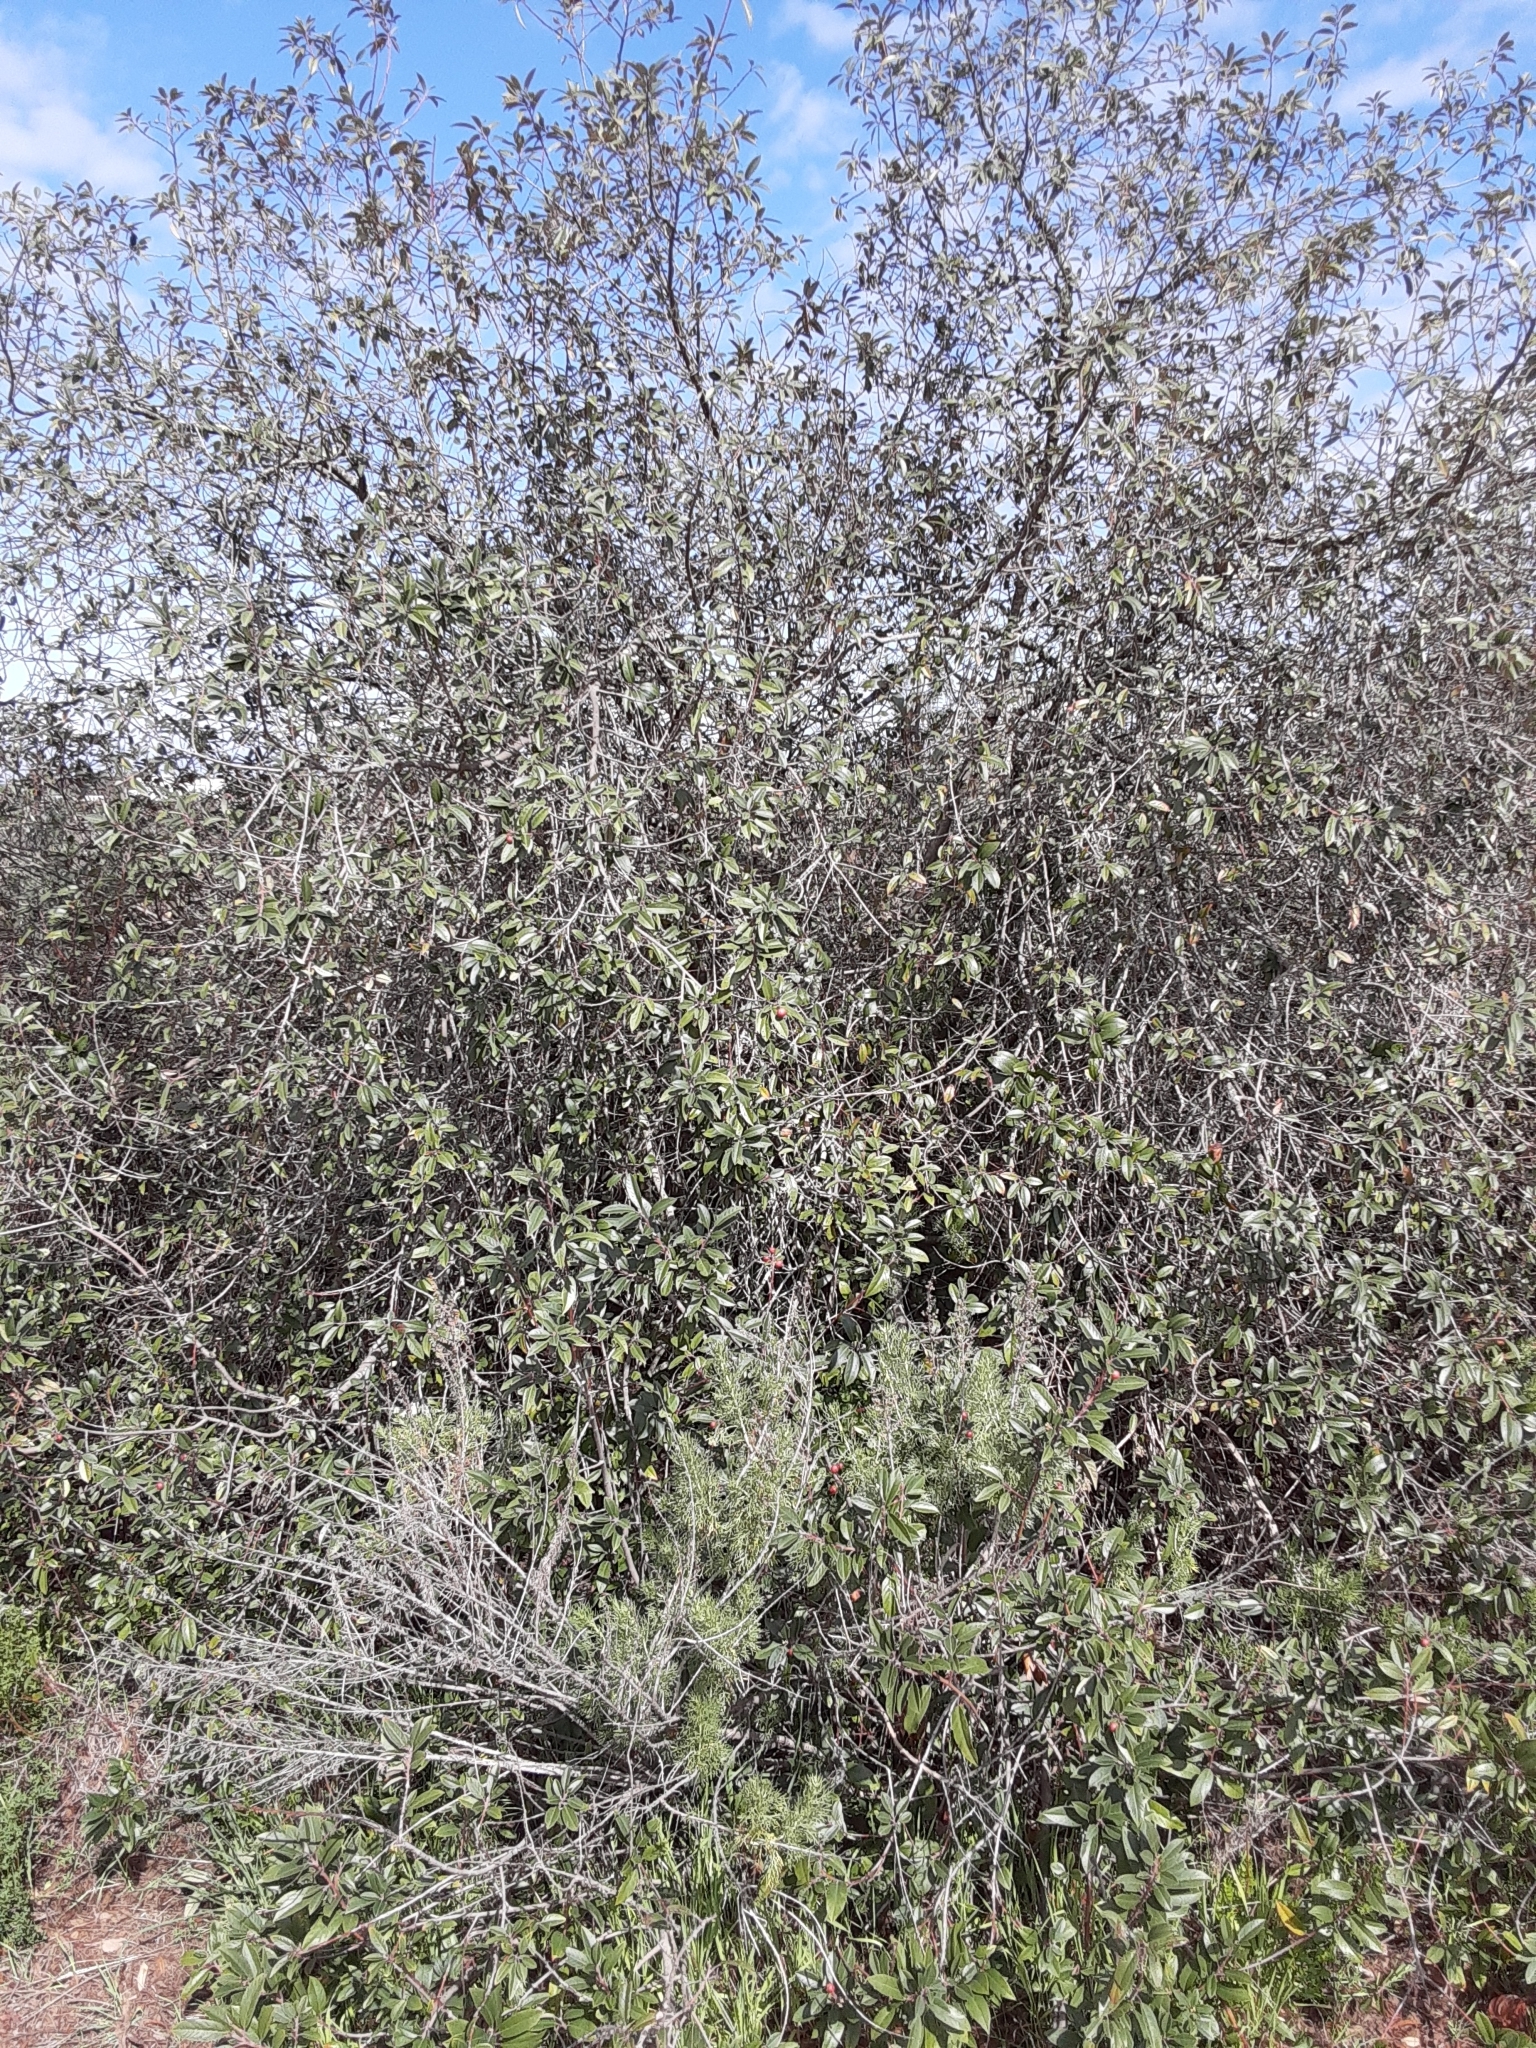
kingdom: Plantae
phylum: Tracheophyta
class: Magnoliopsida
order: Rosales
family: Rhamnaceae
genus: Frangula
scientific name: Frangula californica
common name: California buckthorn
